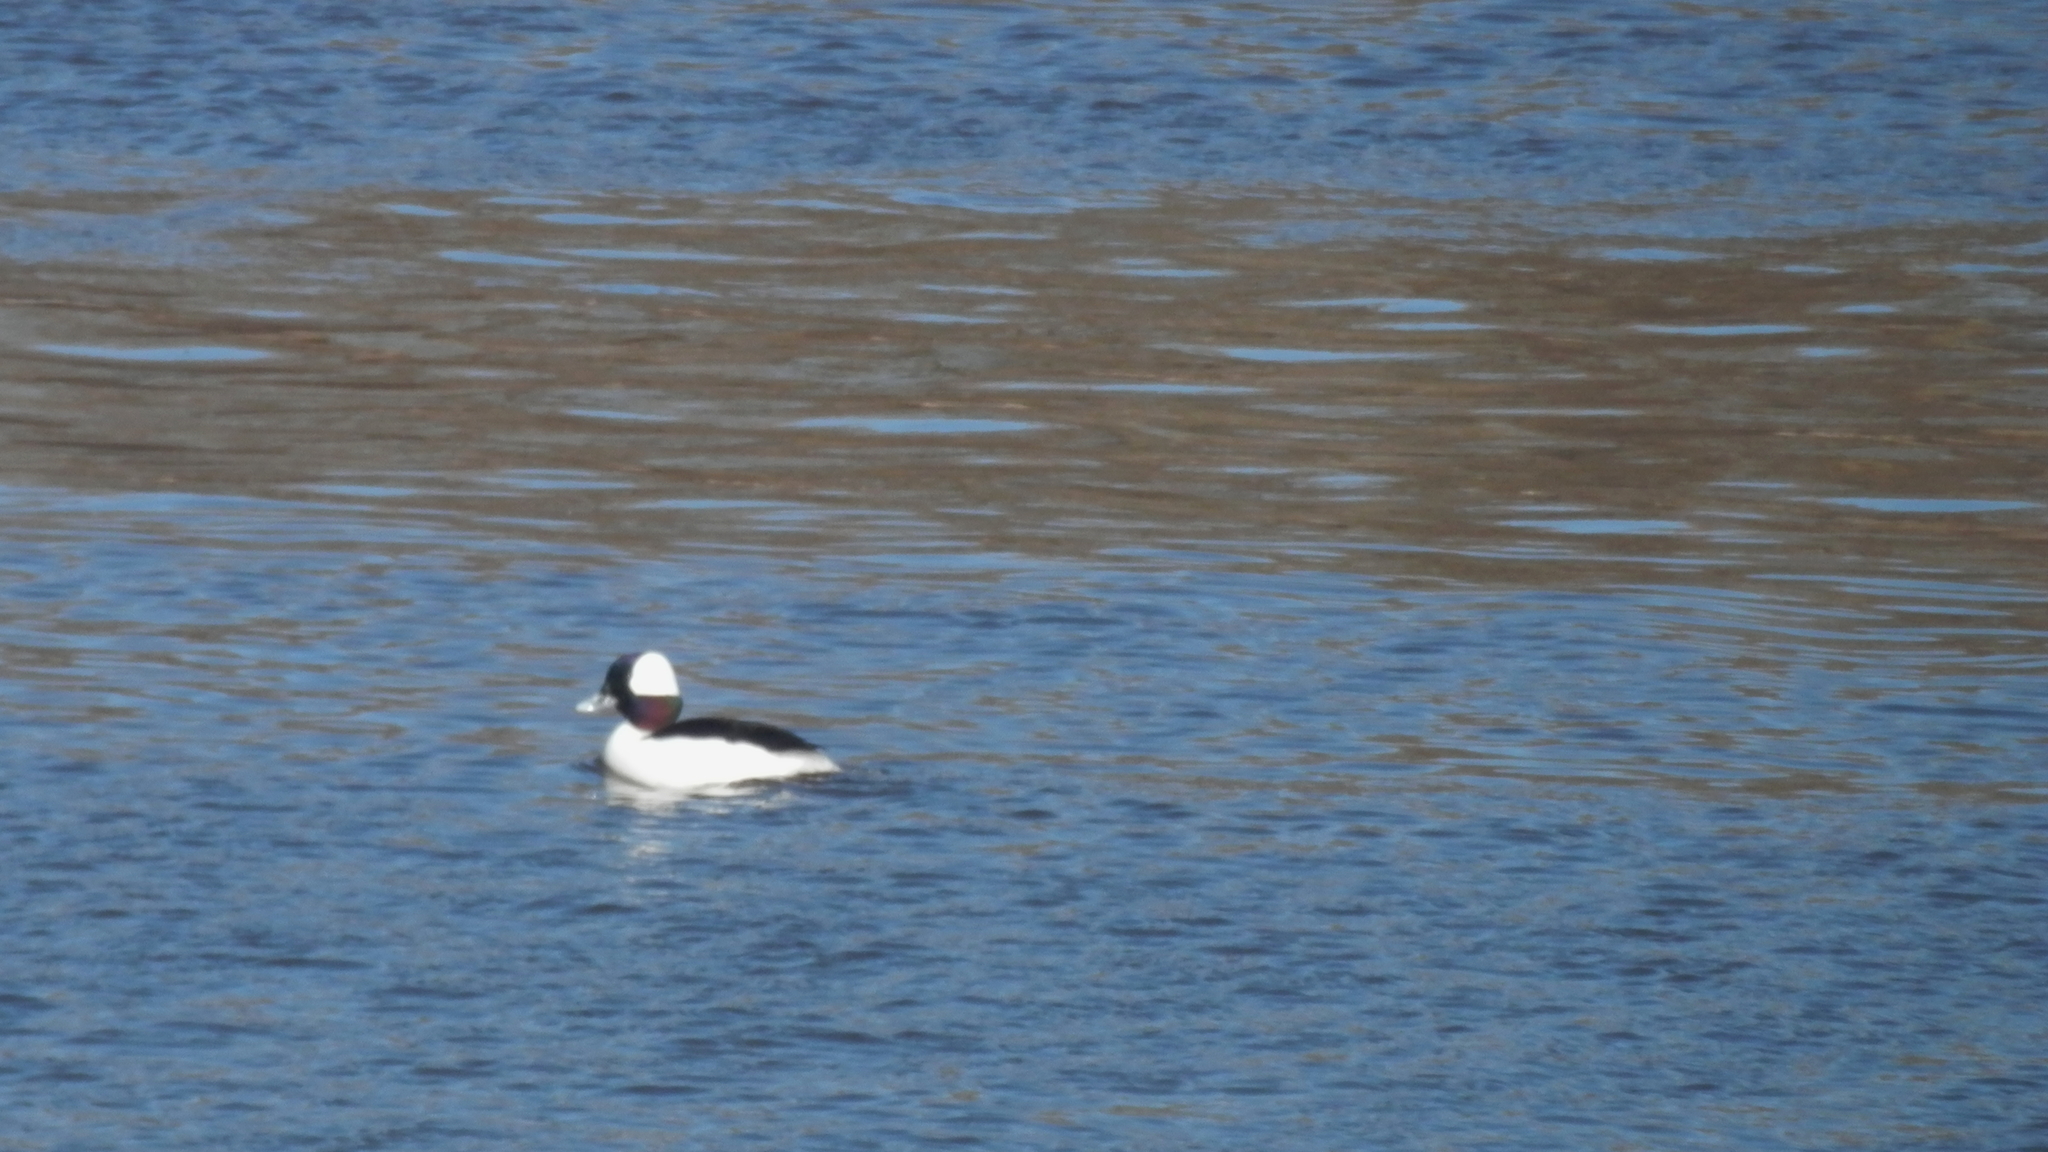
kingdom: Animalia
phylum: Chordata
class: Aves
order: Anseriformes
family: Anatidae
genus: Bucephala
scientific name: Bucephala albeola
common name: Bufflehead
